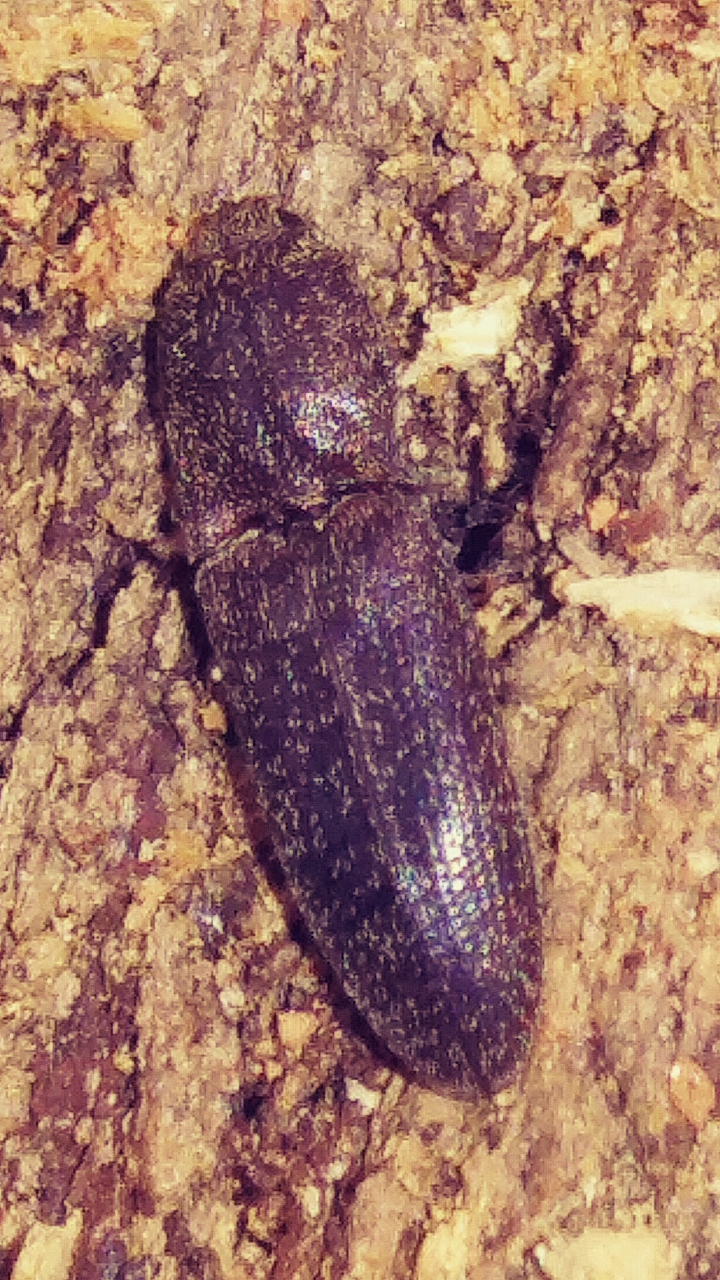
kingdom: Animalia
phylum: Arthropoda
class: Insecta
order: Coleoptera
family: Elateridae
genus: Lacon
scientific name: Lacon impressicollis
